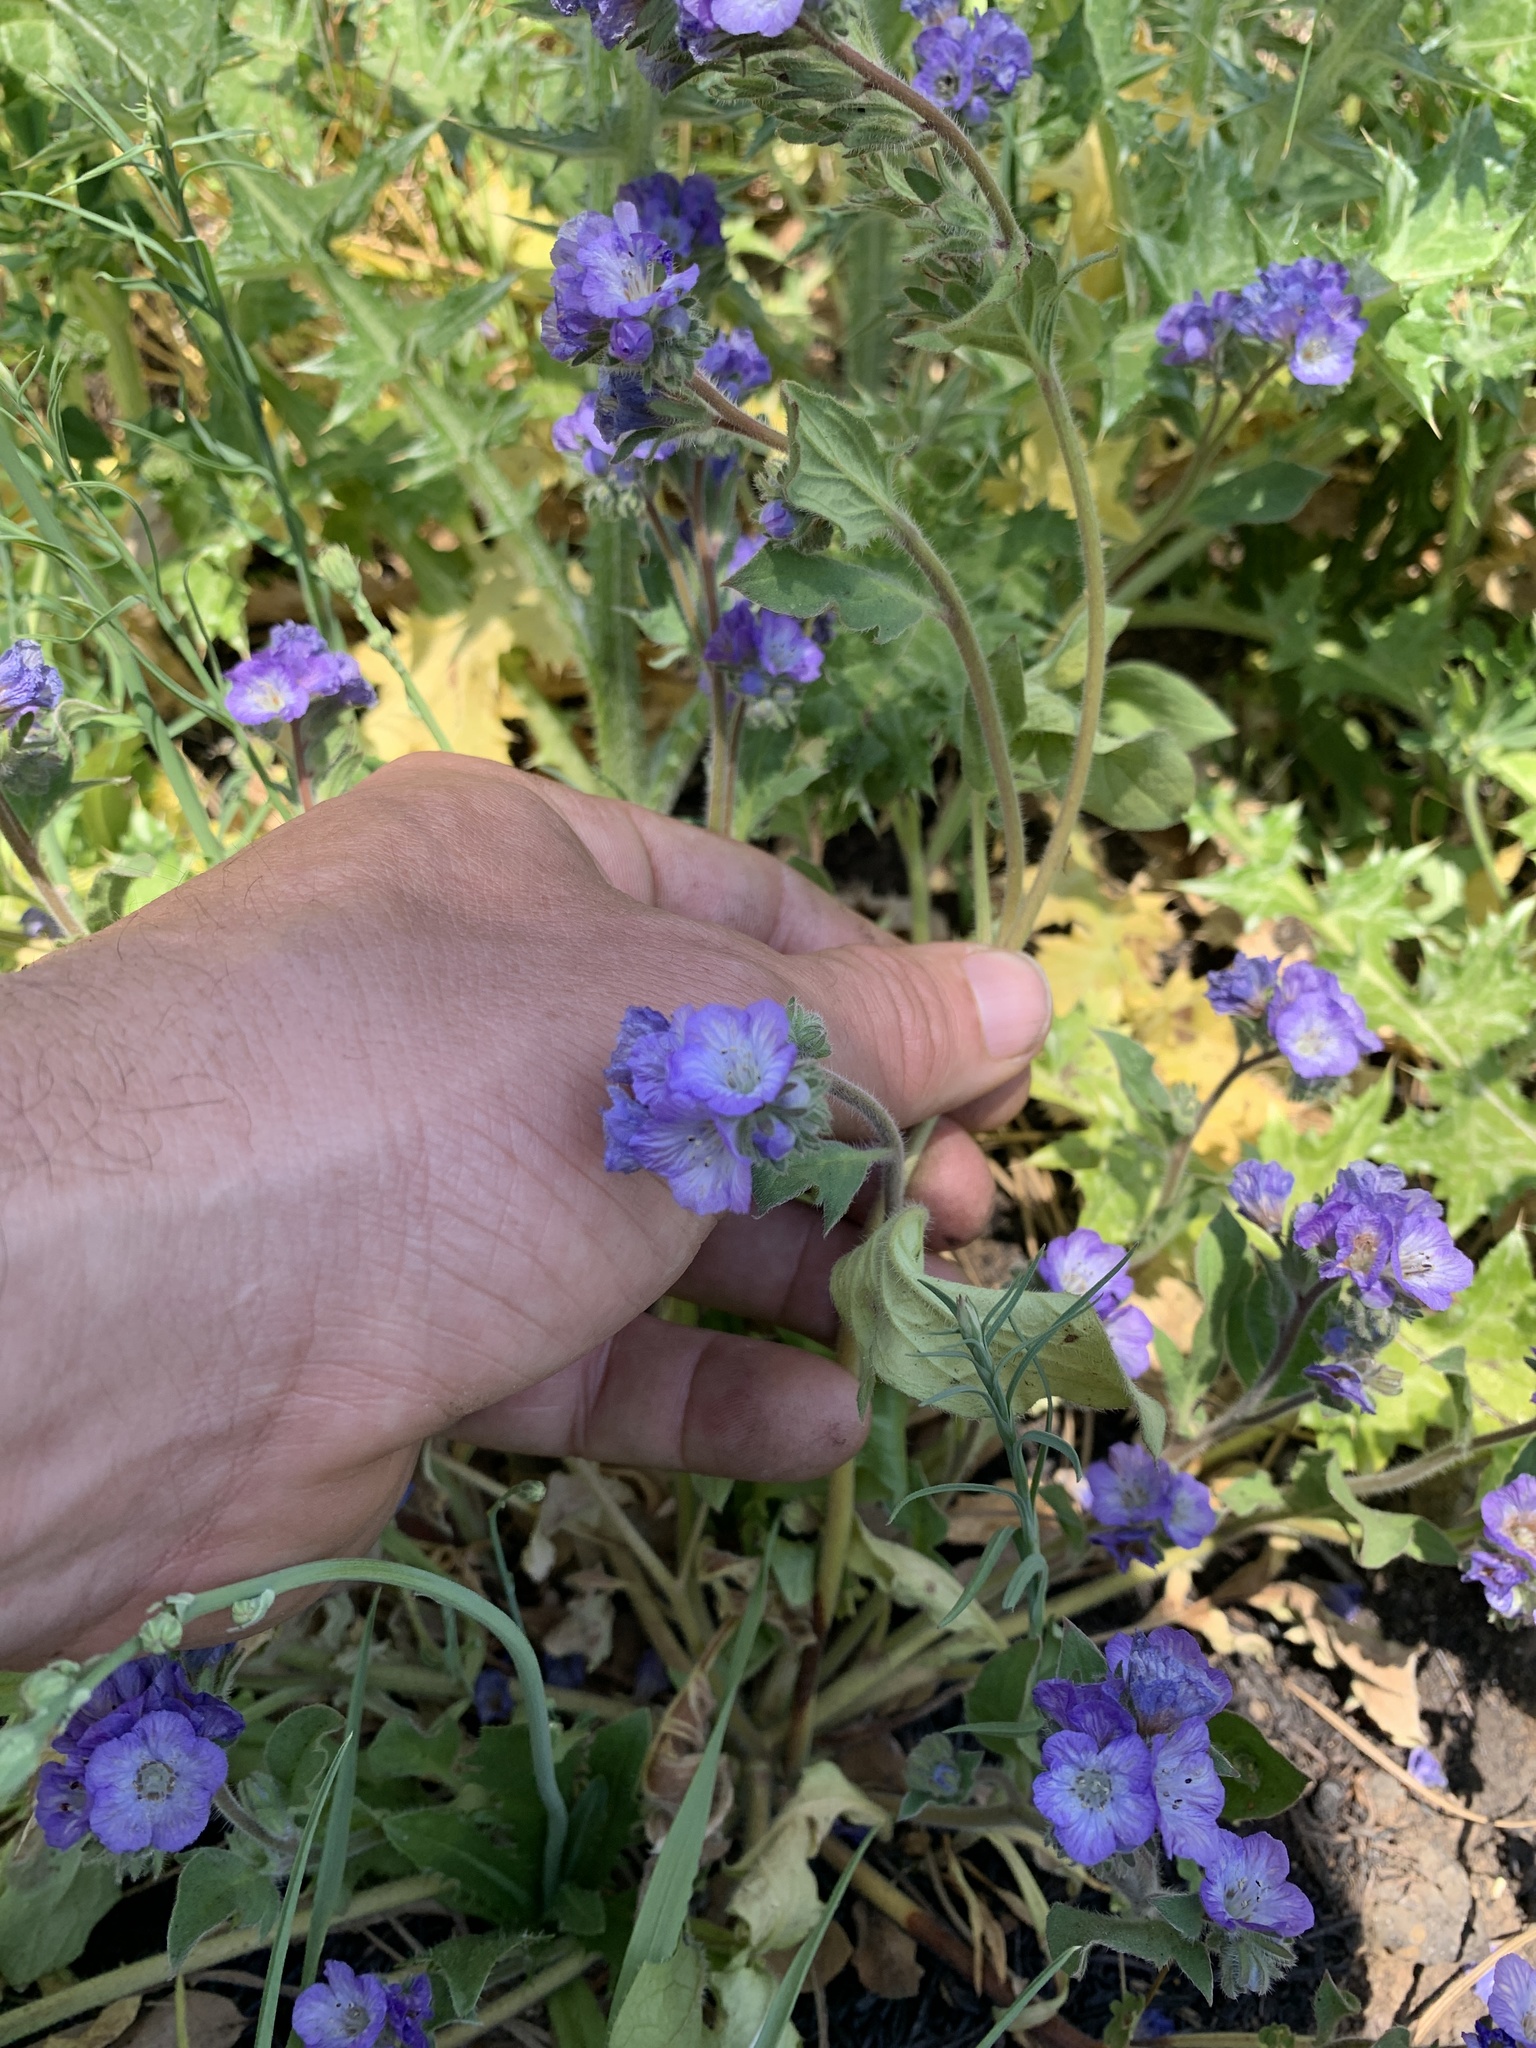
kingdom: Plantae
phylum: Tracheophyta
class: Magnoliopsida
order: Boraginales
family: Hydrophyllaceae
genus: Phacelia
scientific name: Phacelia divaricata
